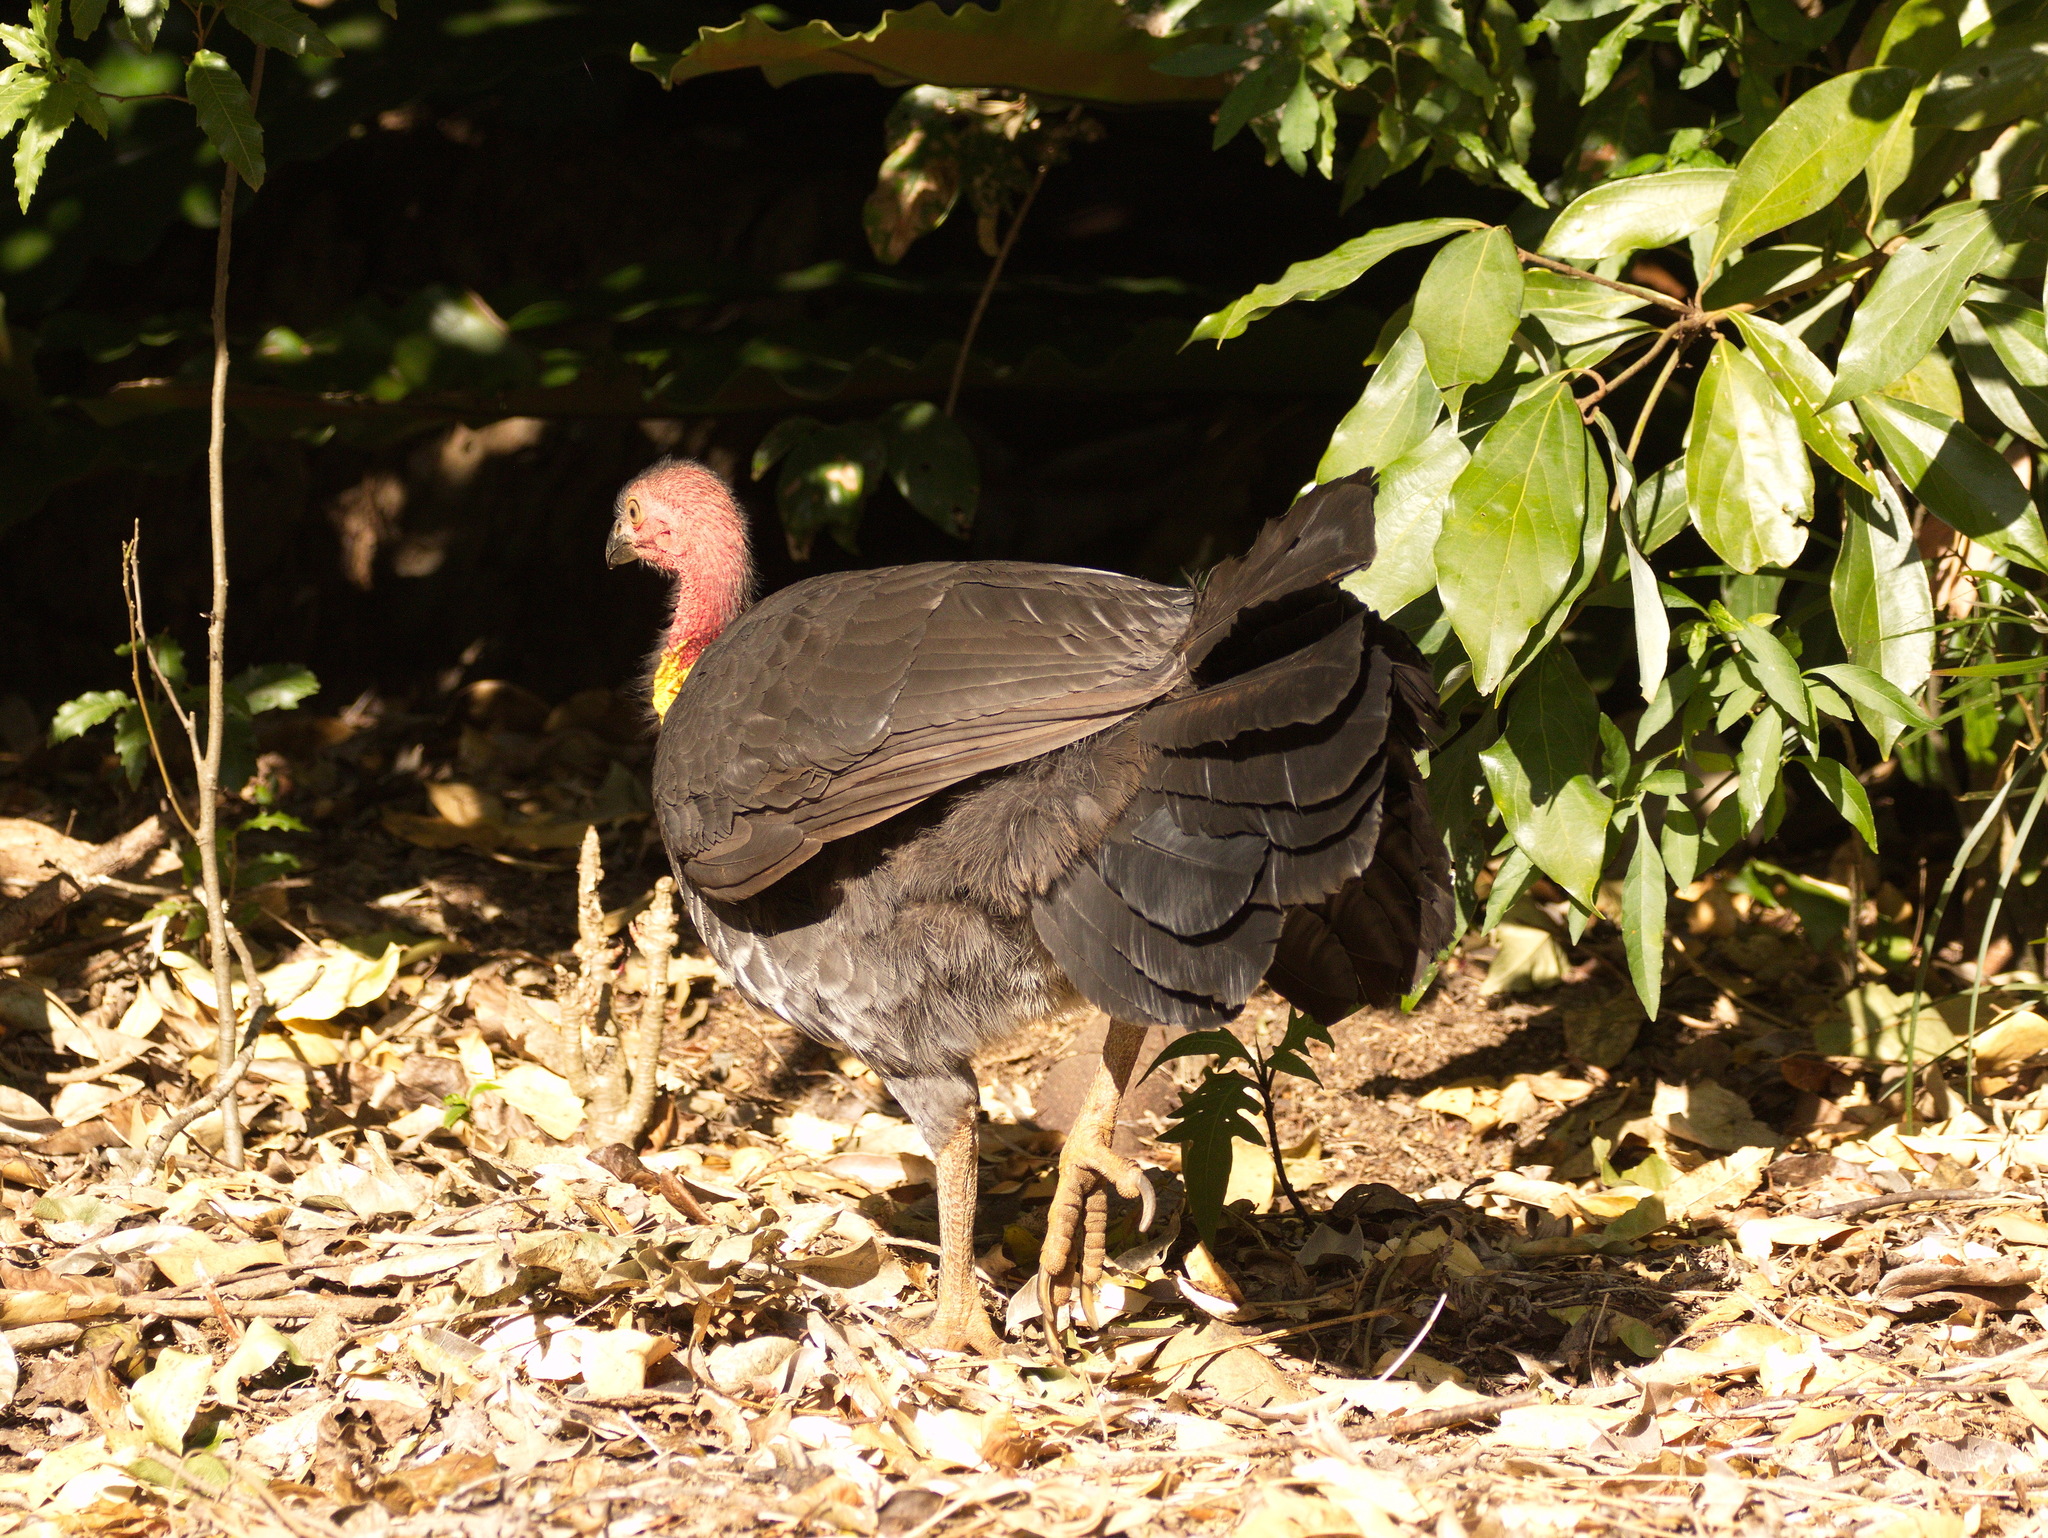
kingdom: Animalia
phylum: Chordata
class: Aves
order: Galliformes
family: Megapodiidae
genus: Alectura
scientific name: Alectura lathami
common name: Australian brushturkey
